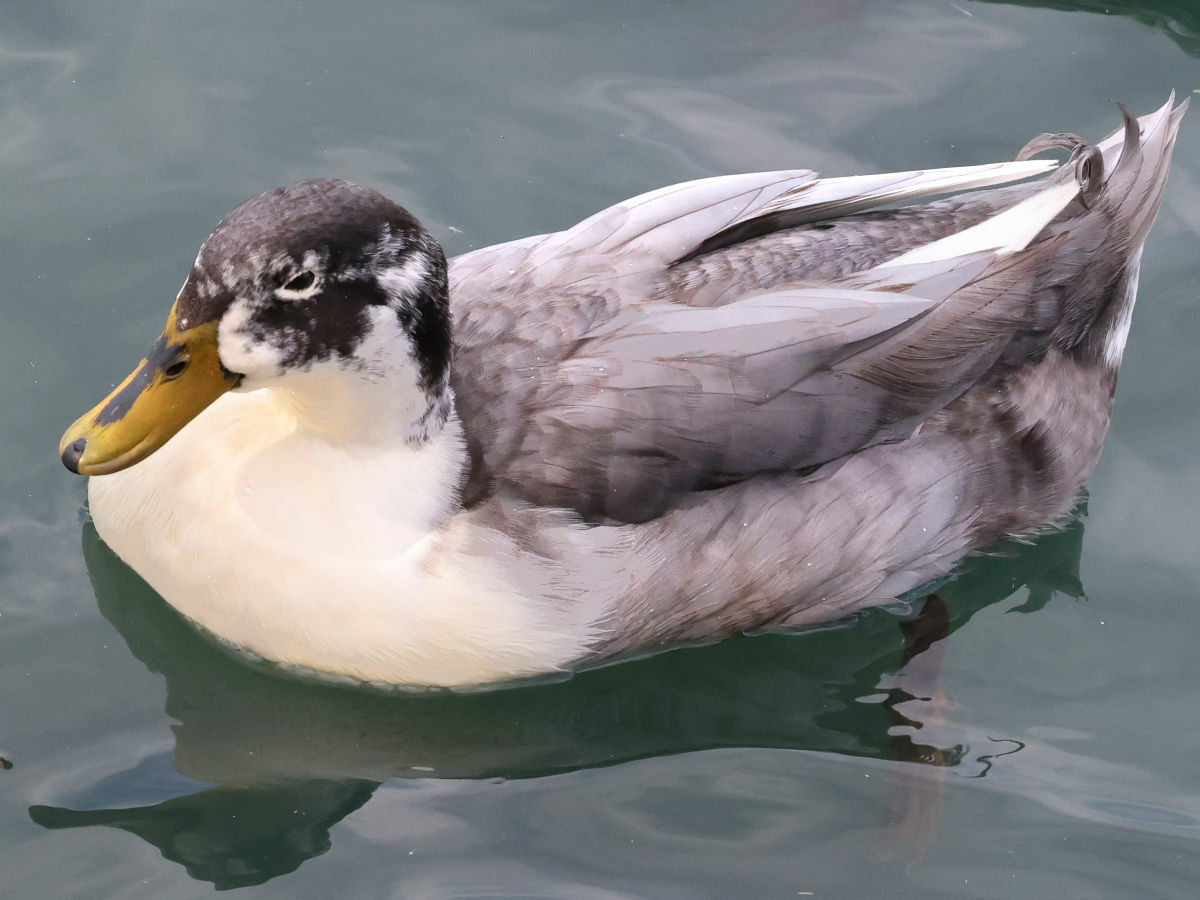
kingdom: Animalia
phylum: Chordata
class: Aves
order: Anseriformes
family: Anatidae
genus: Anas
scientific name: Anas platyrhynchos
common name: Mallard
